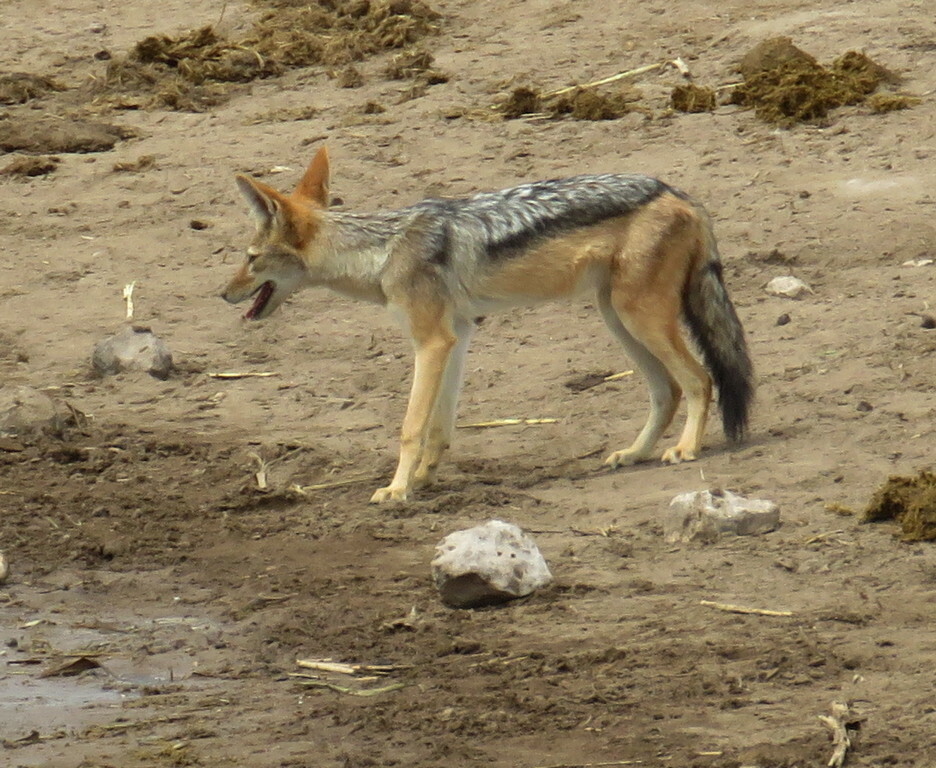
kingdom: Animalia
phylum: Chordata
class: Mammalia
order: Carnivora
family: Canidae
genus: Lupulella
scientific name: Lupulella
